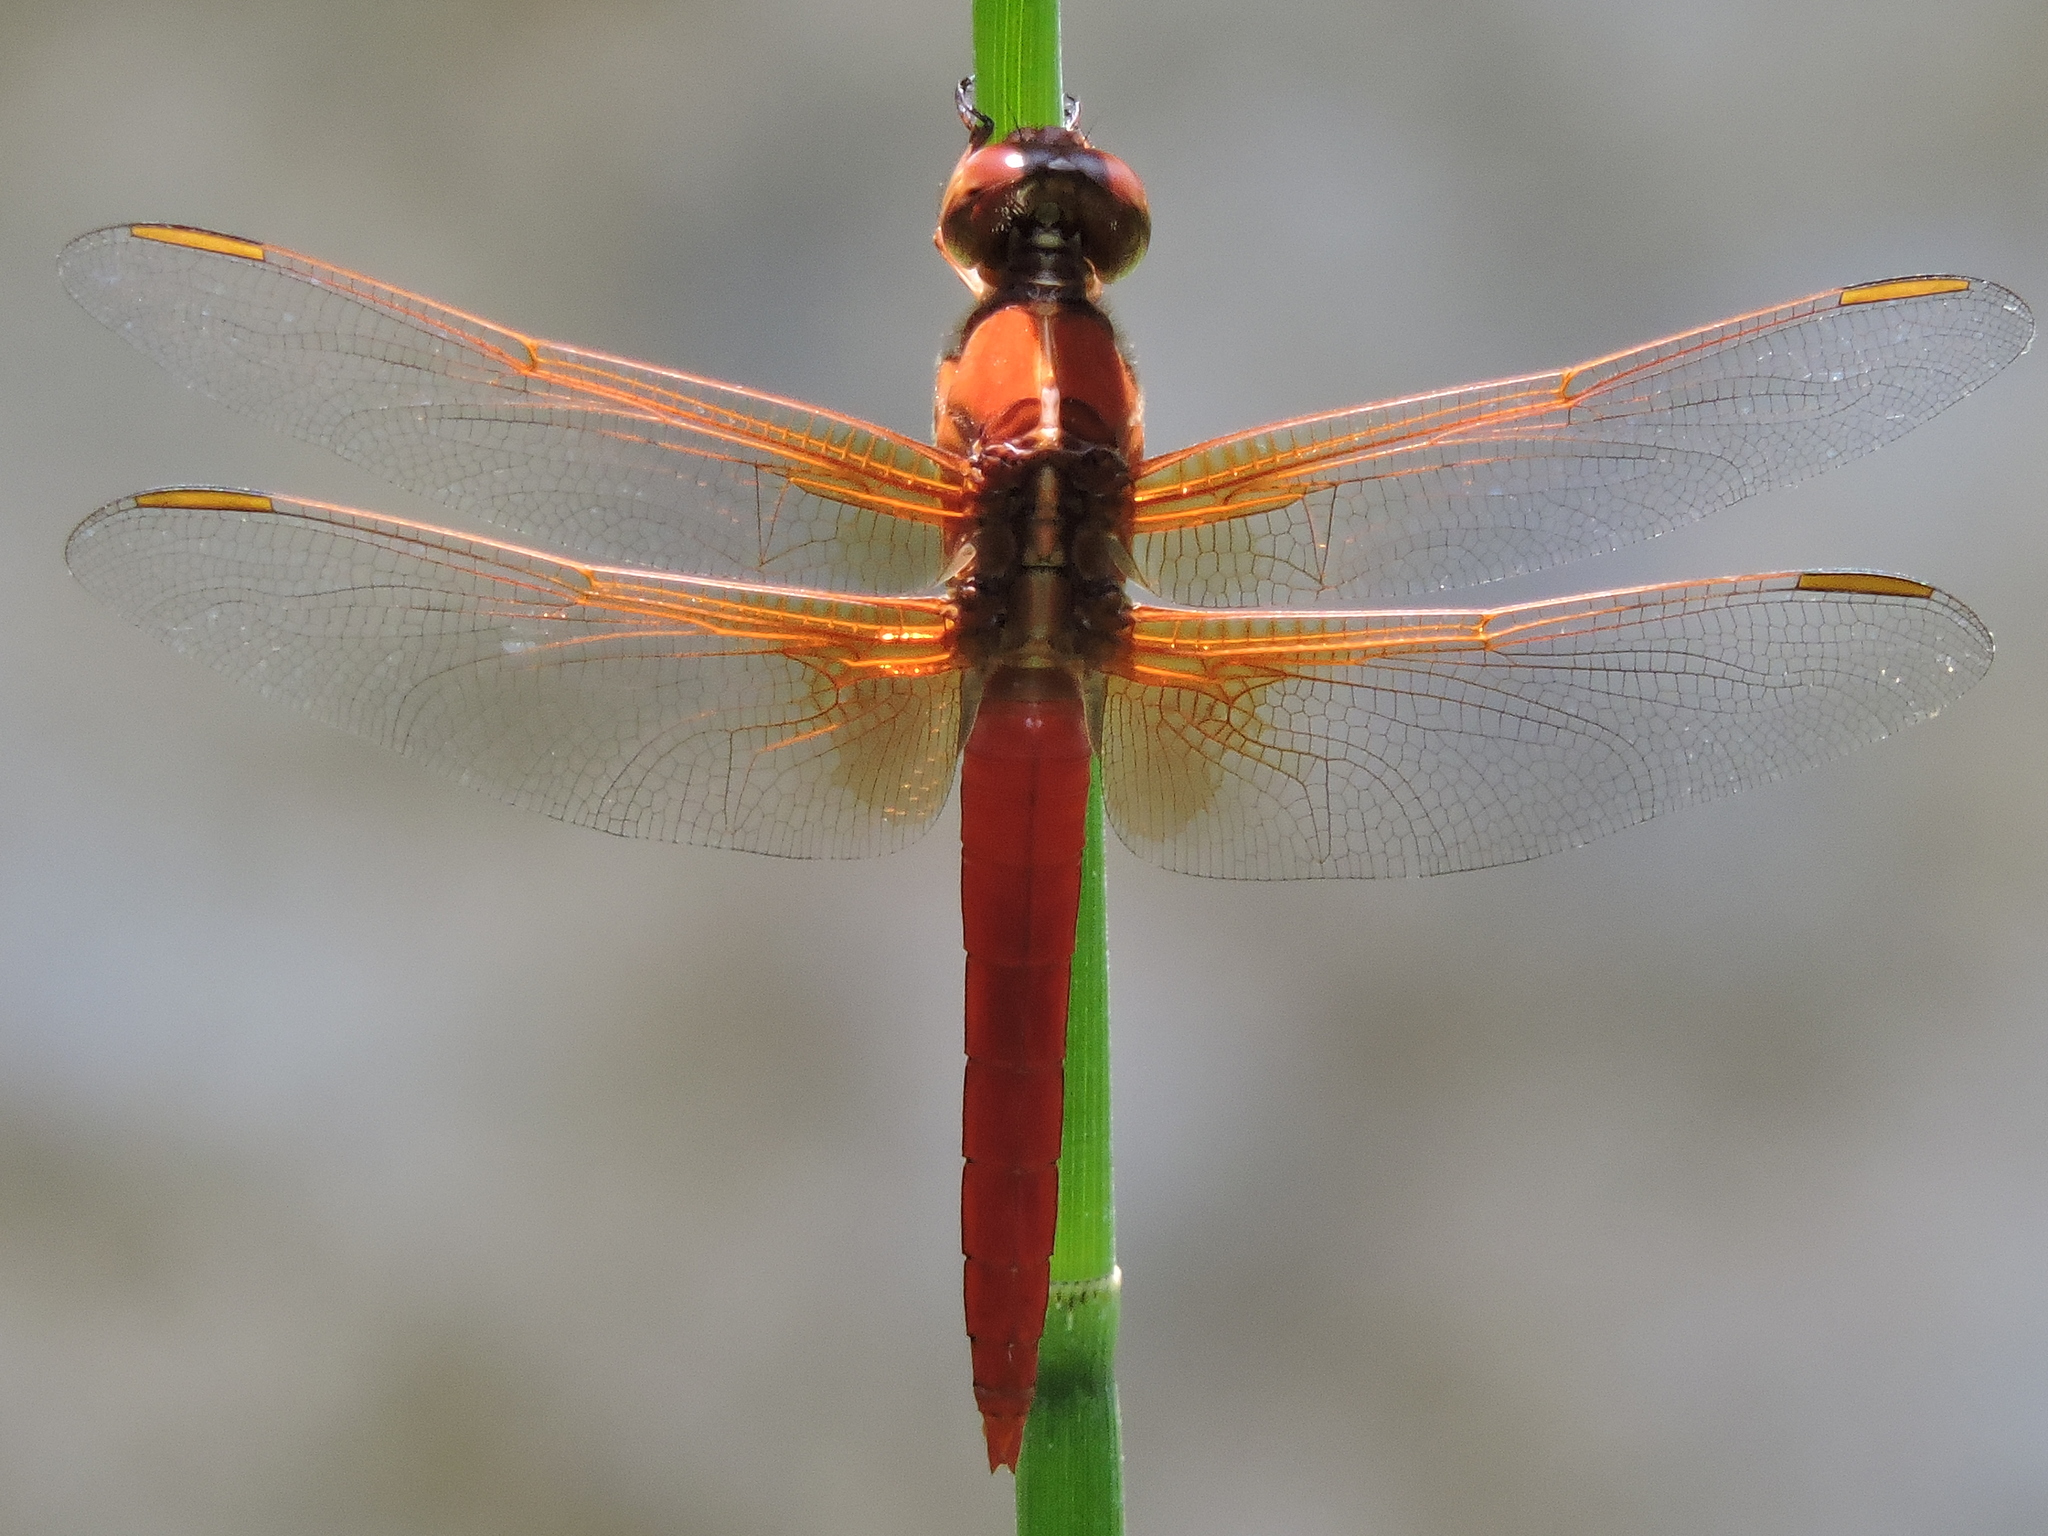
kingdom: Animalia
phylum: Arthropoda
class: Insecta
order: Odonata
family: Libellulidae
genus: Libellula
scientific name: Libellula croceipennis
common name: Neon skimmer
